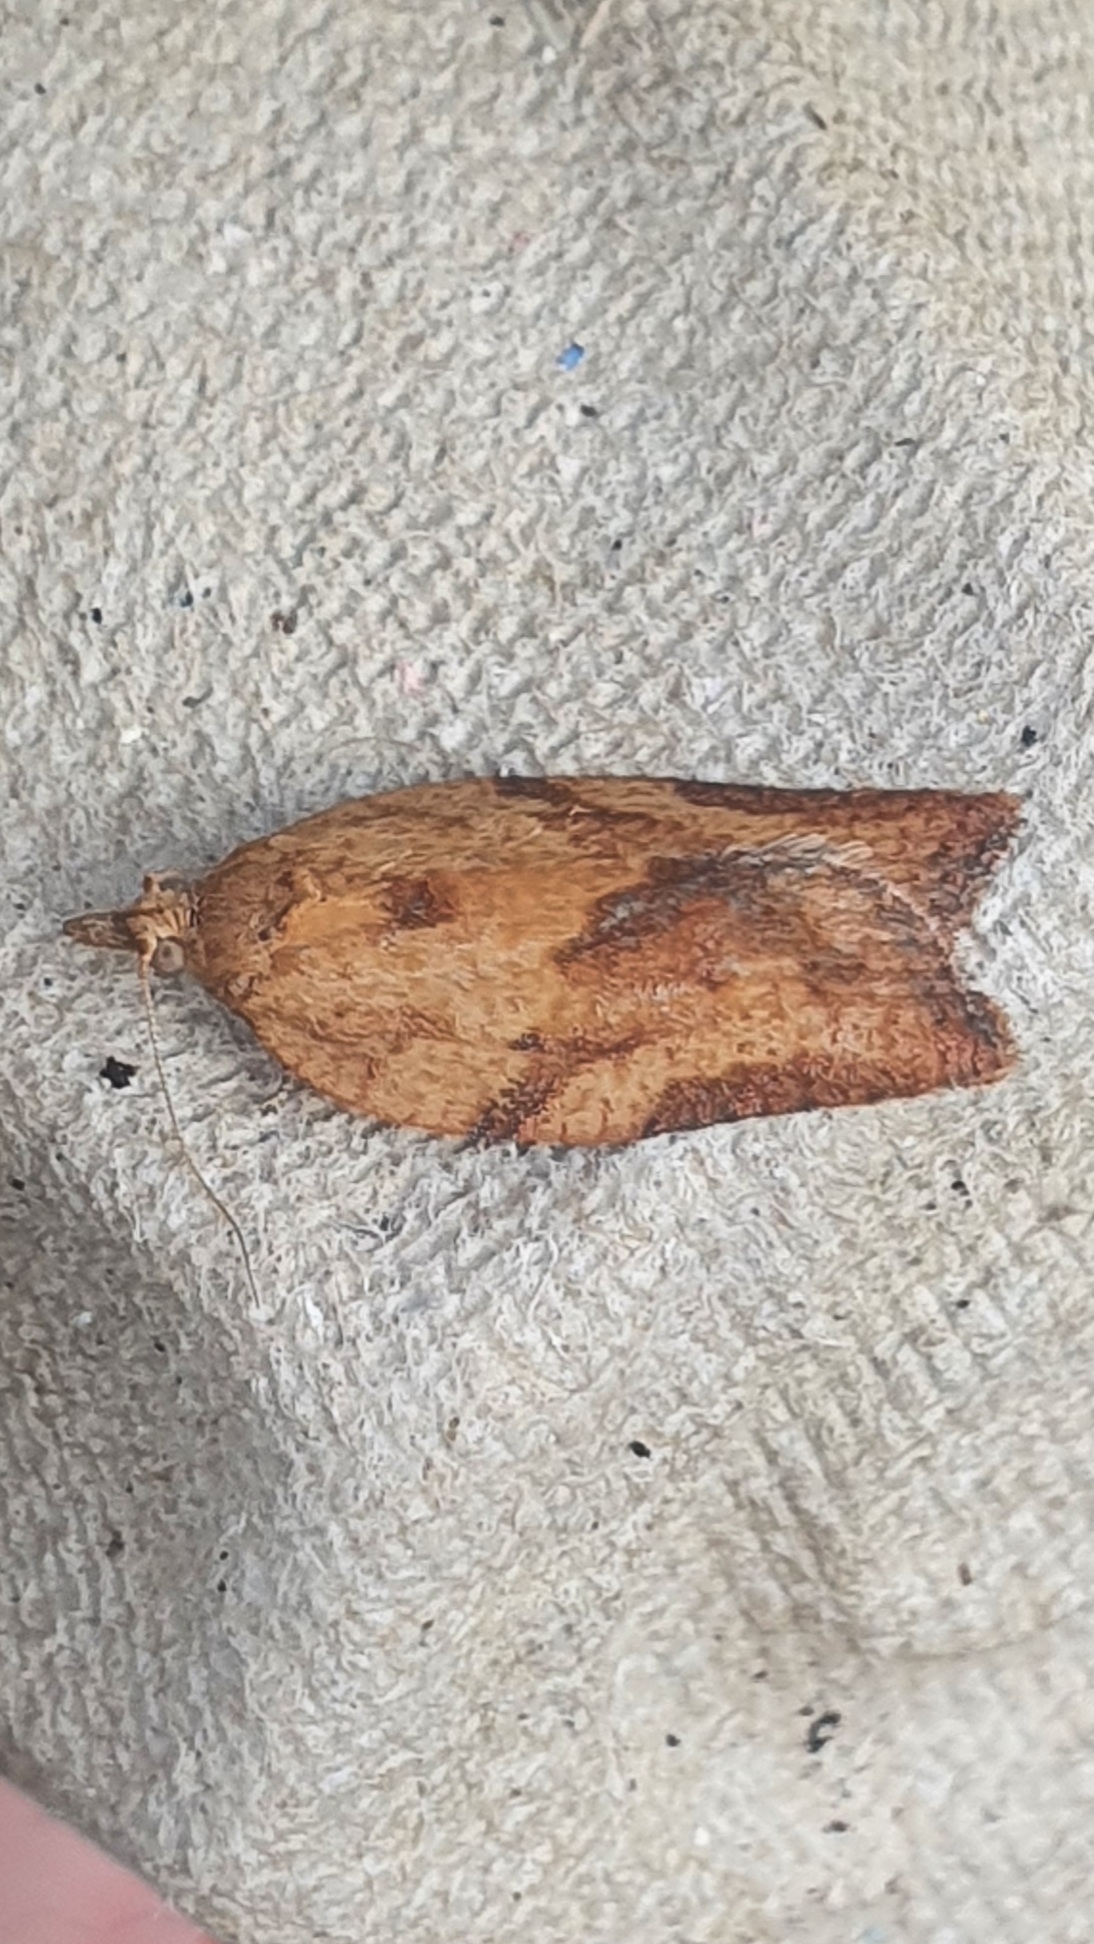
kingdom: Animalia
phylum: Arthropoda
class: Insecta
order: Lepidoptera
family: Tortricidae
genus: Epiphyas
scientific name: Epiphyas postvittana
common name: Light brown apple moth
